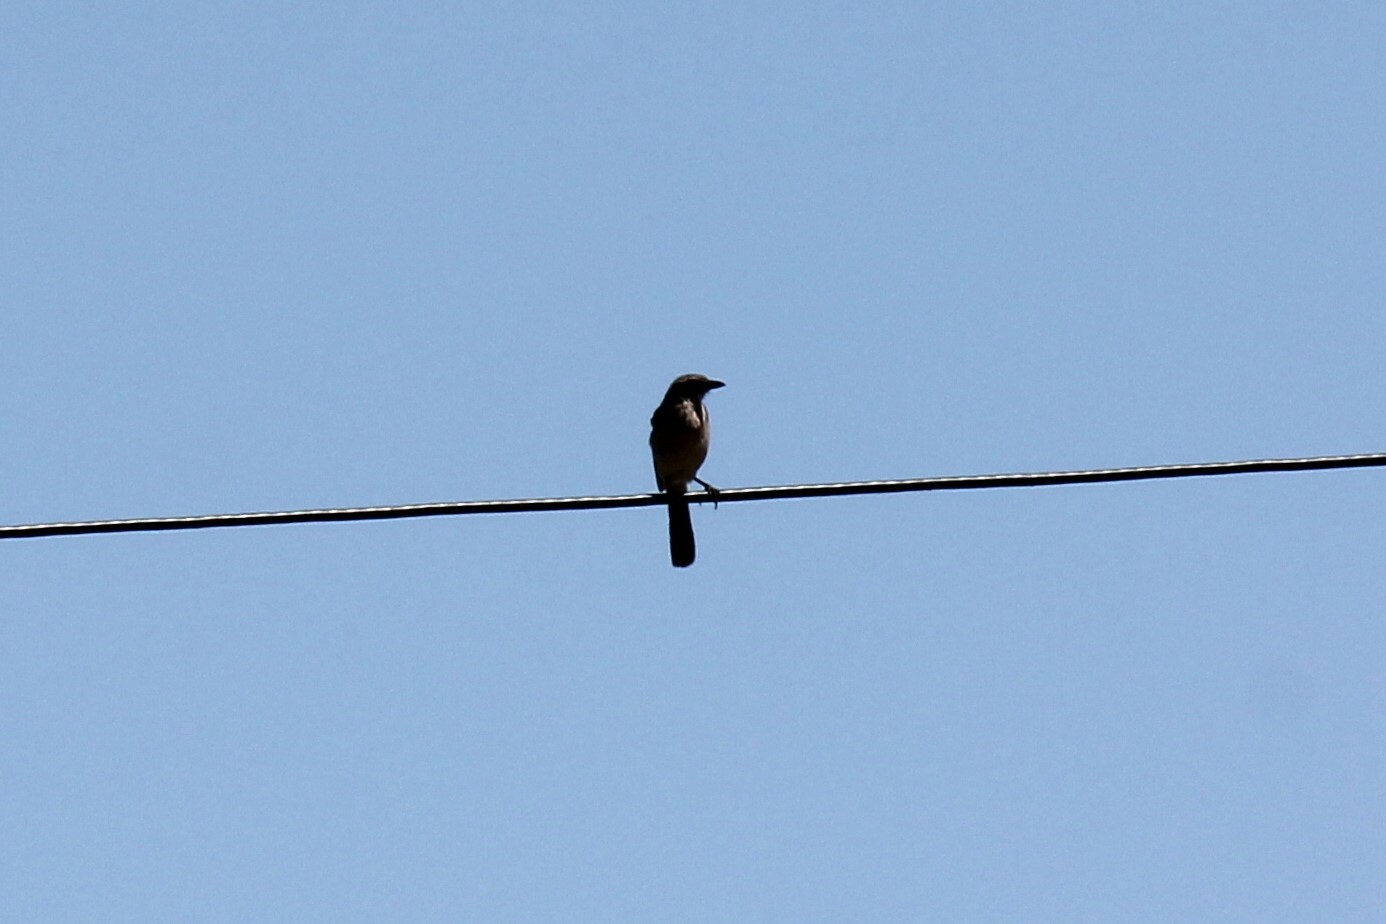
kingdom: Animalia
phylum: Chordata
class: Aves
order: Passeriformes
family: Corvidae
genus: Aphelocoma
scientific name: Aphelocoma californica
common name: California scrub-jay
